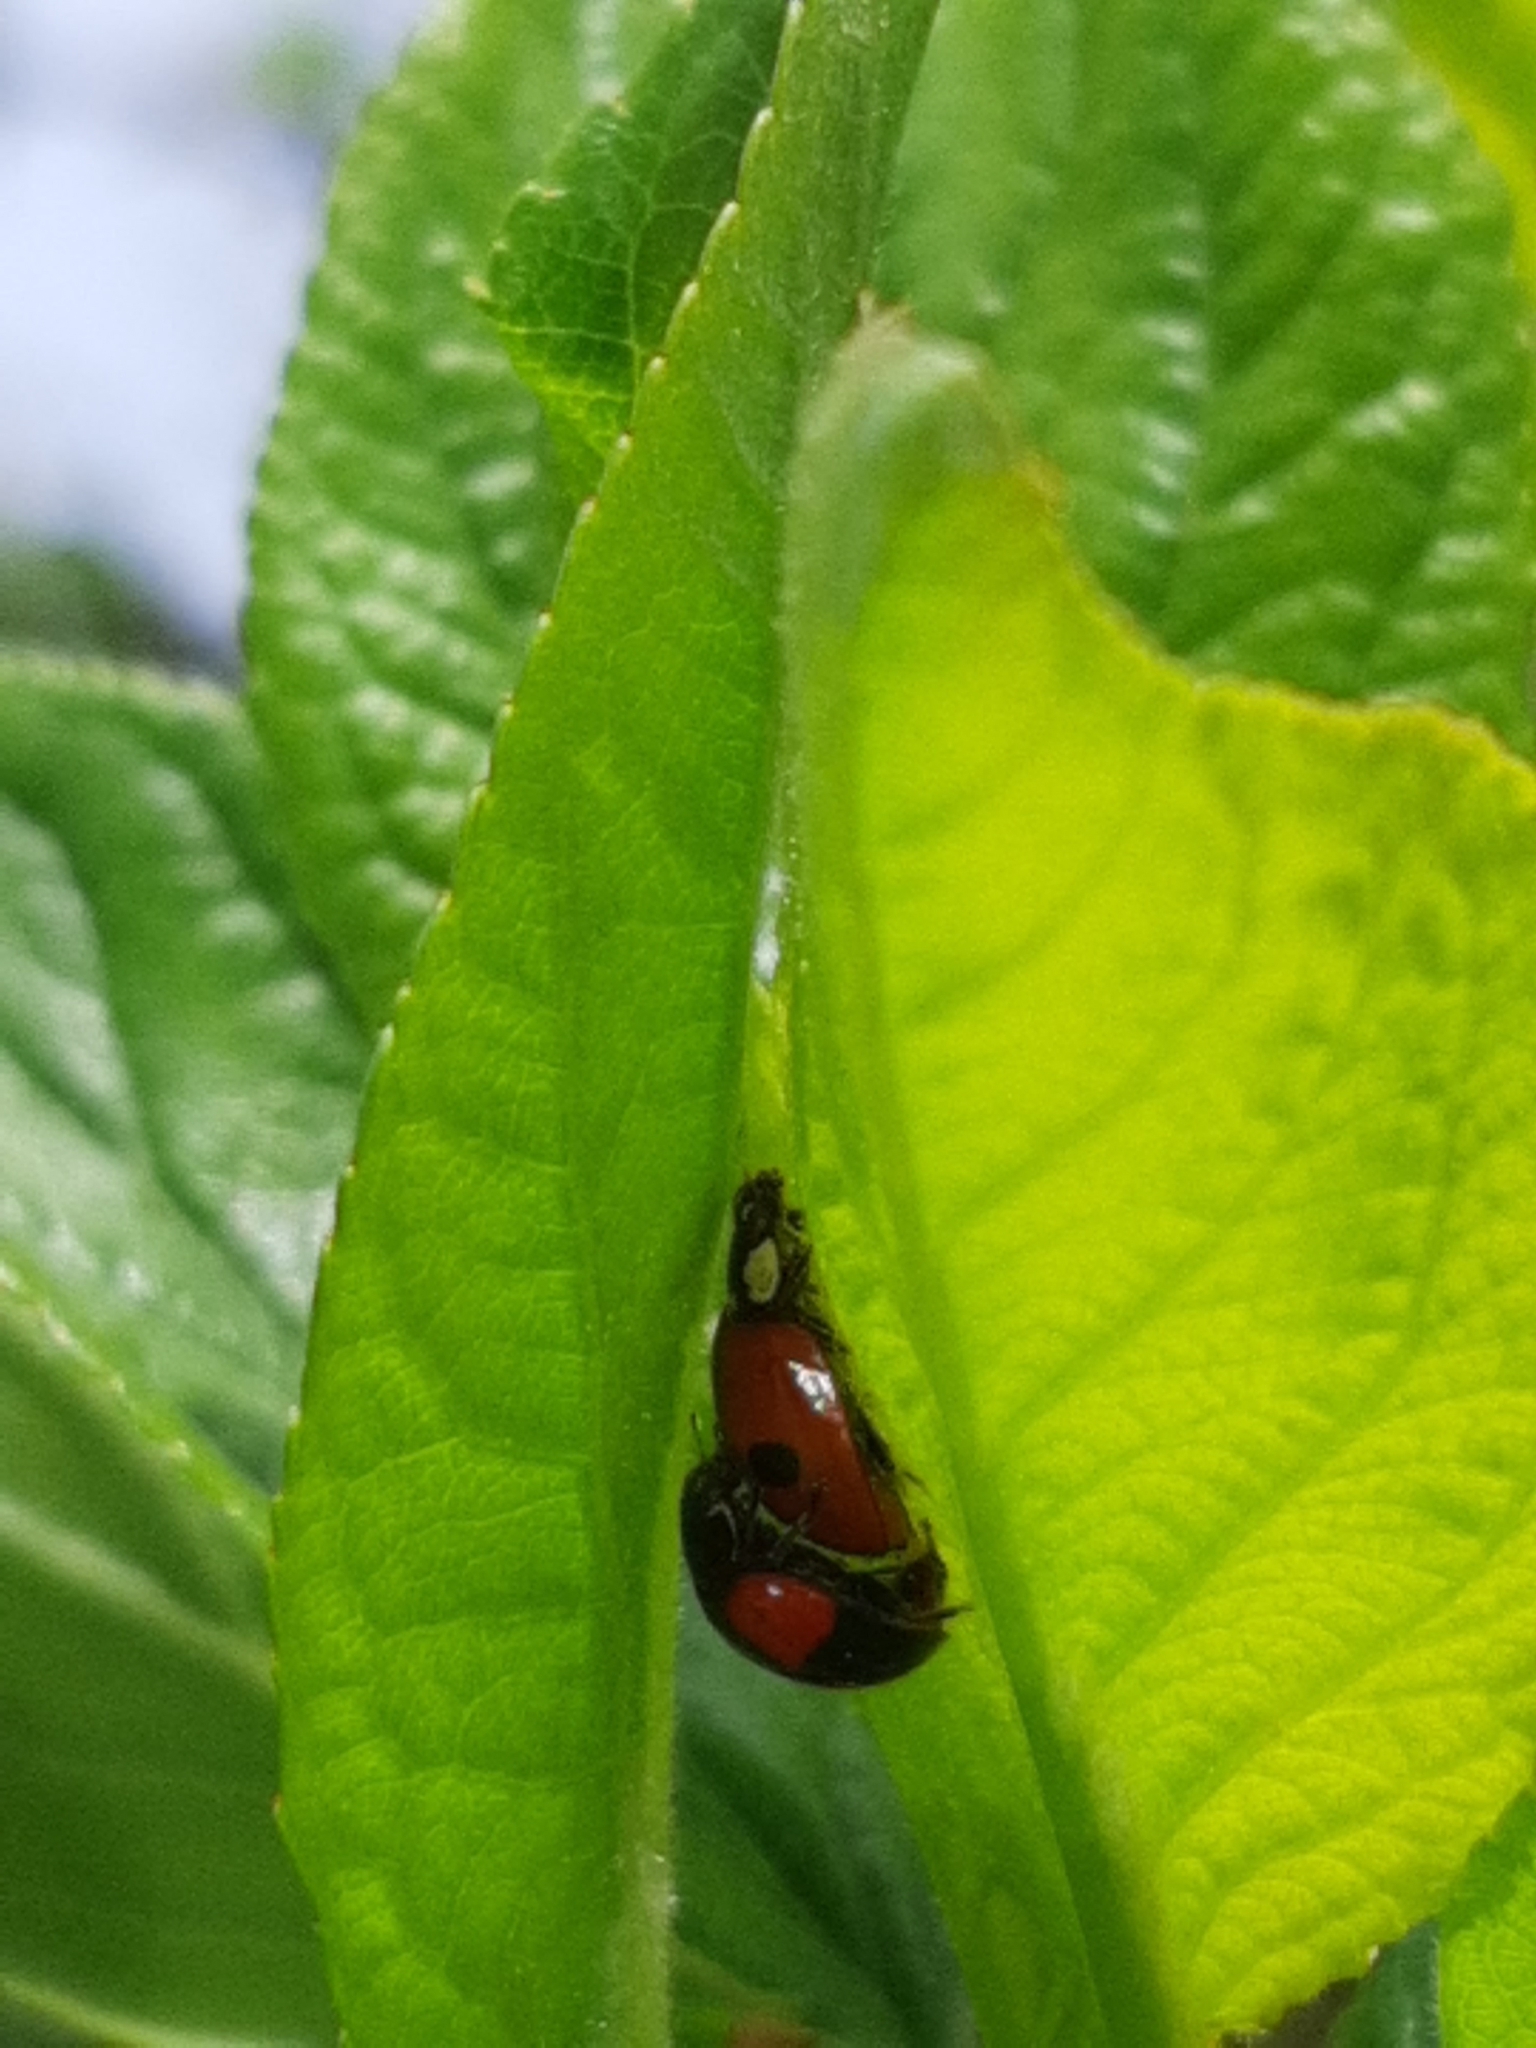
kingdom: Animalia
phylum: Arthropoda
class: Insecta
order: Coleoptera
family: Coccinellidae
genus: Adalia
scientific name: Adalia bipunctata
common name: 2-spot ladybird
